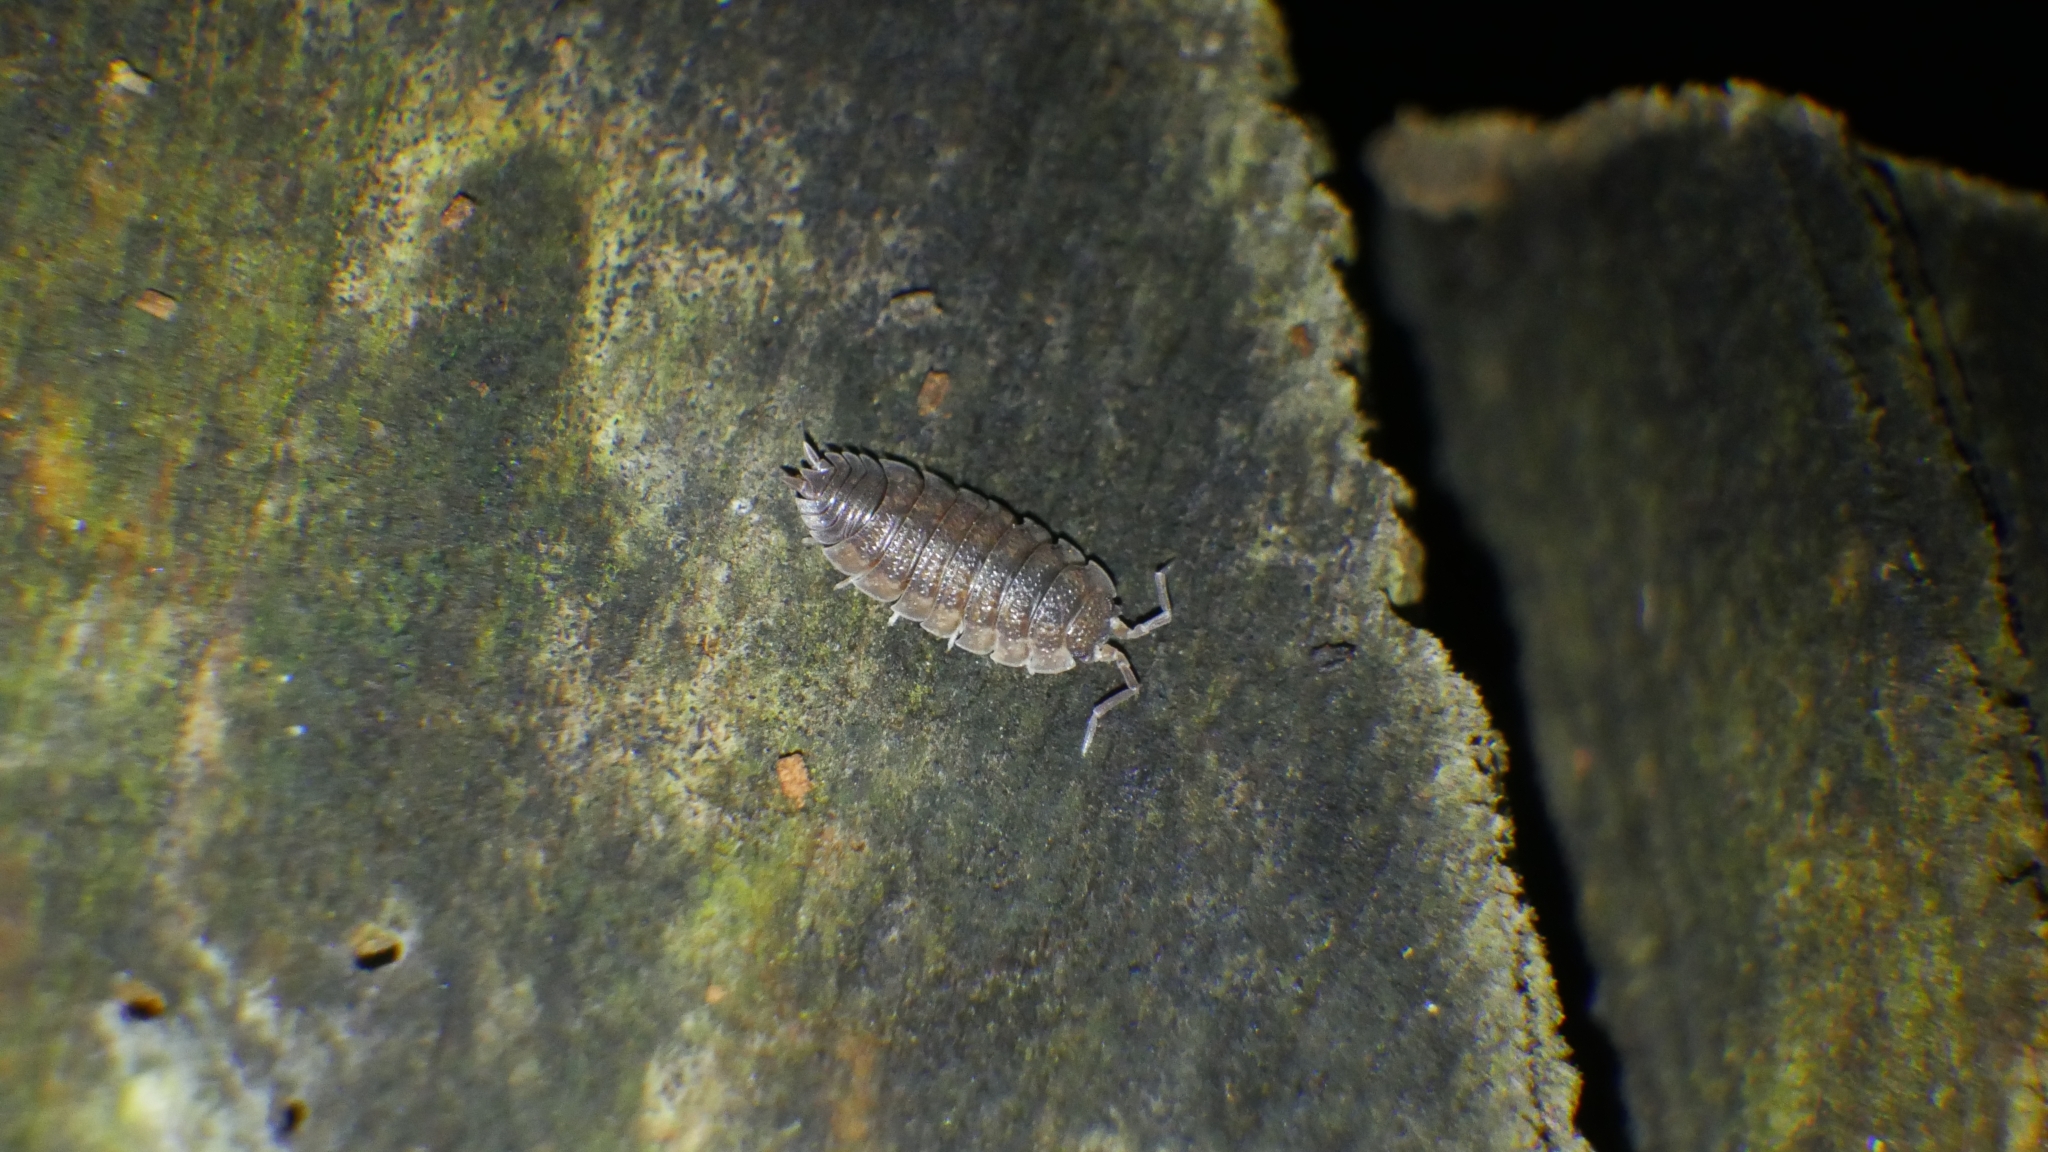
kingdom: Animalia
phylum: Arthropoda
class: Malacostraca
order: Isopoda
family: Porcellionidae
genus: Porcellio
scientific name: Porcellio scaber
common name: Common rough woodlouse
